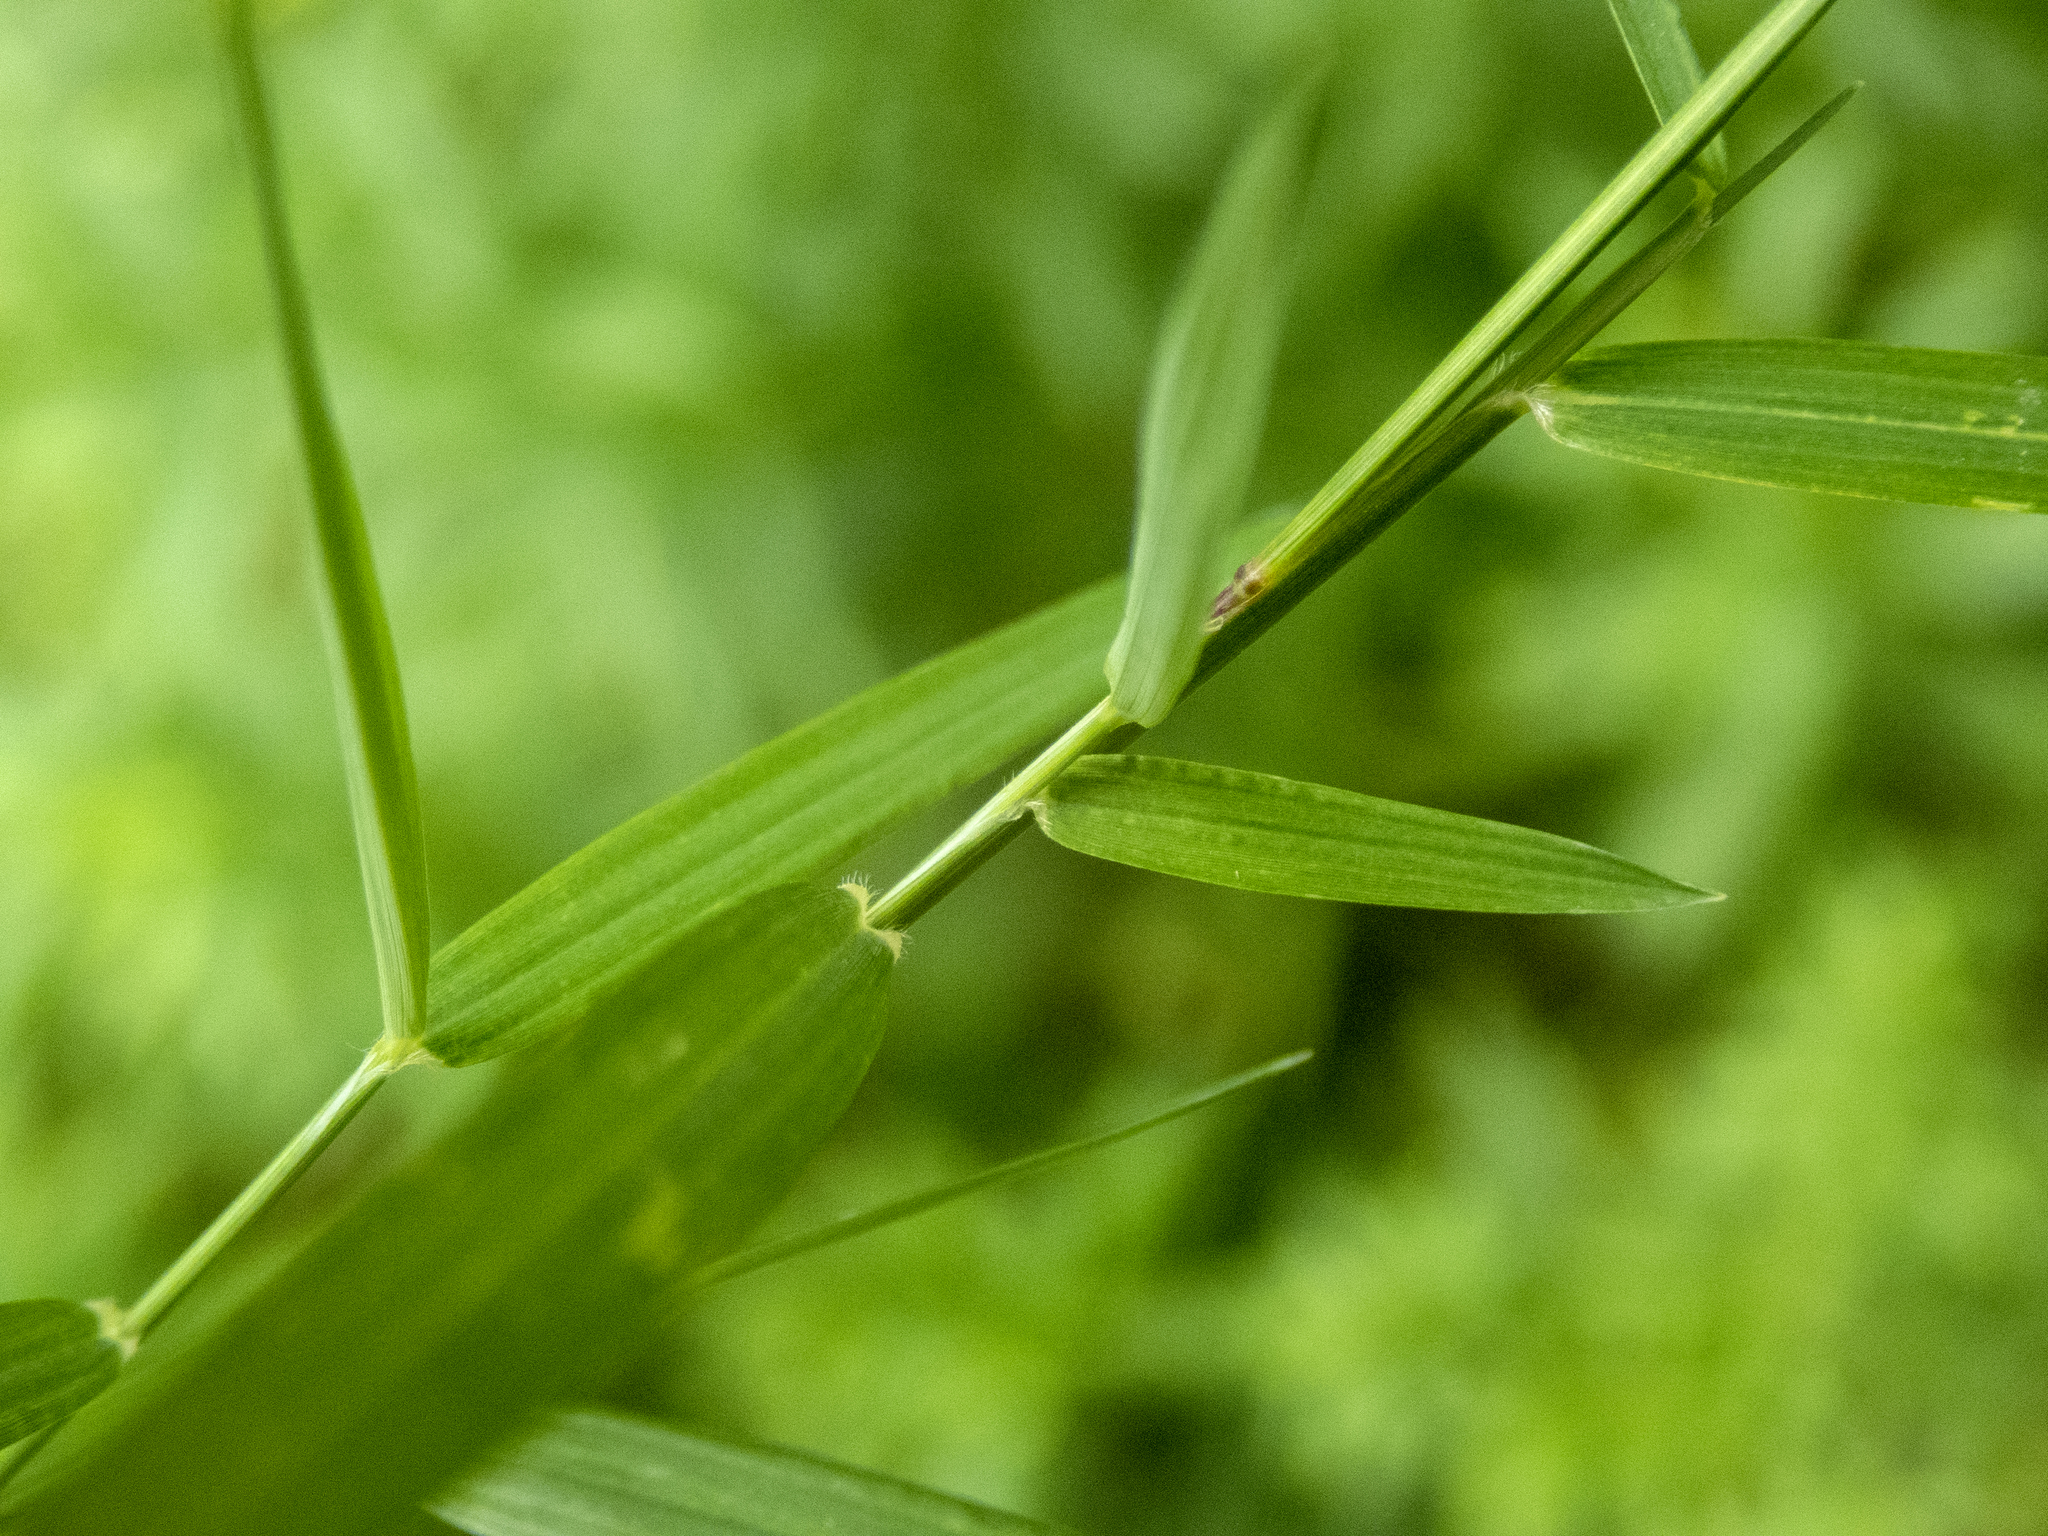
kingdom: Plantae
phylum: Tracheophyta
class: Liliopsida
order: Poales
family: Poaceae
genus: Muhlenbergia
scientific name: Muhlenbergia schreberi
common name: Nimblewill
